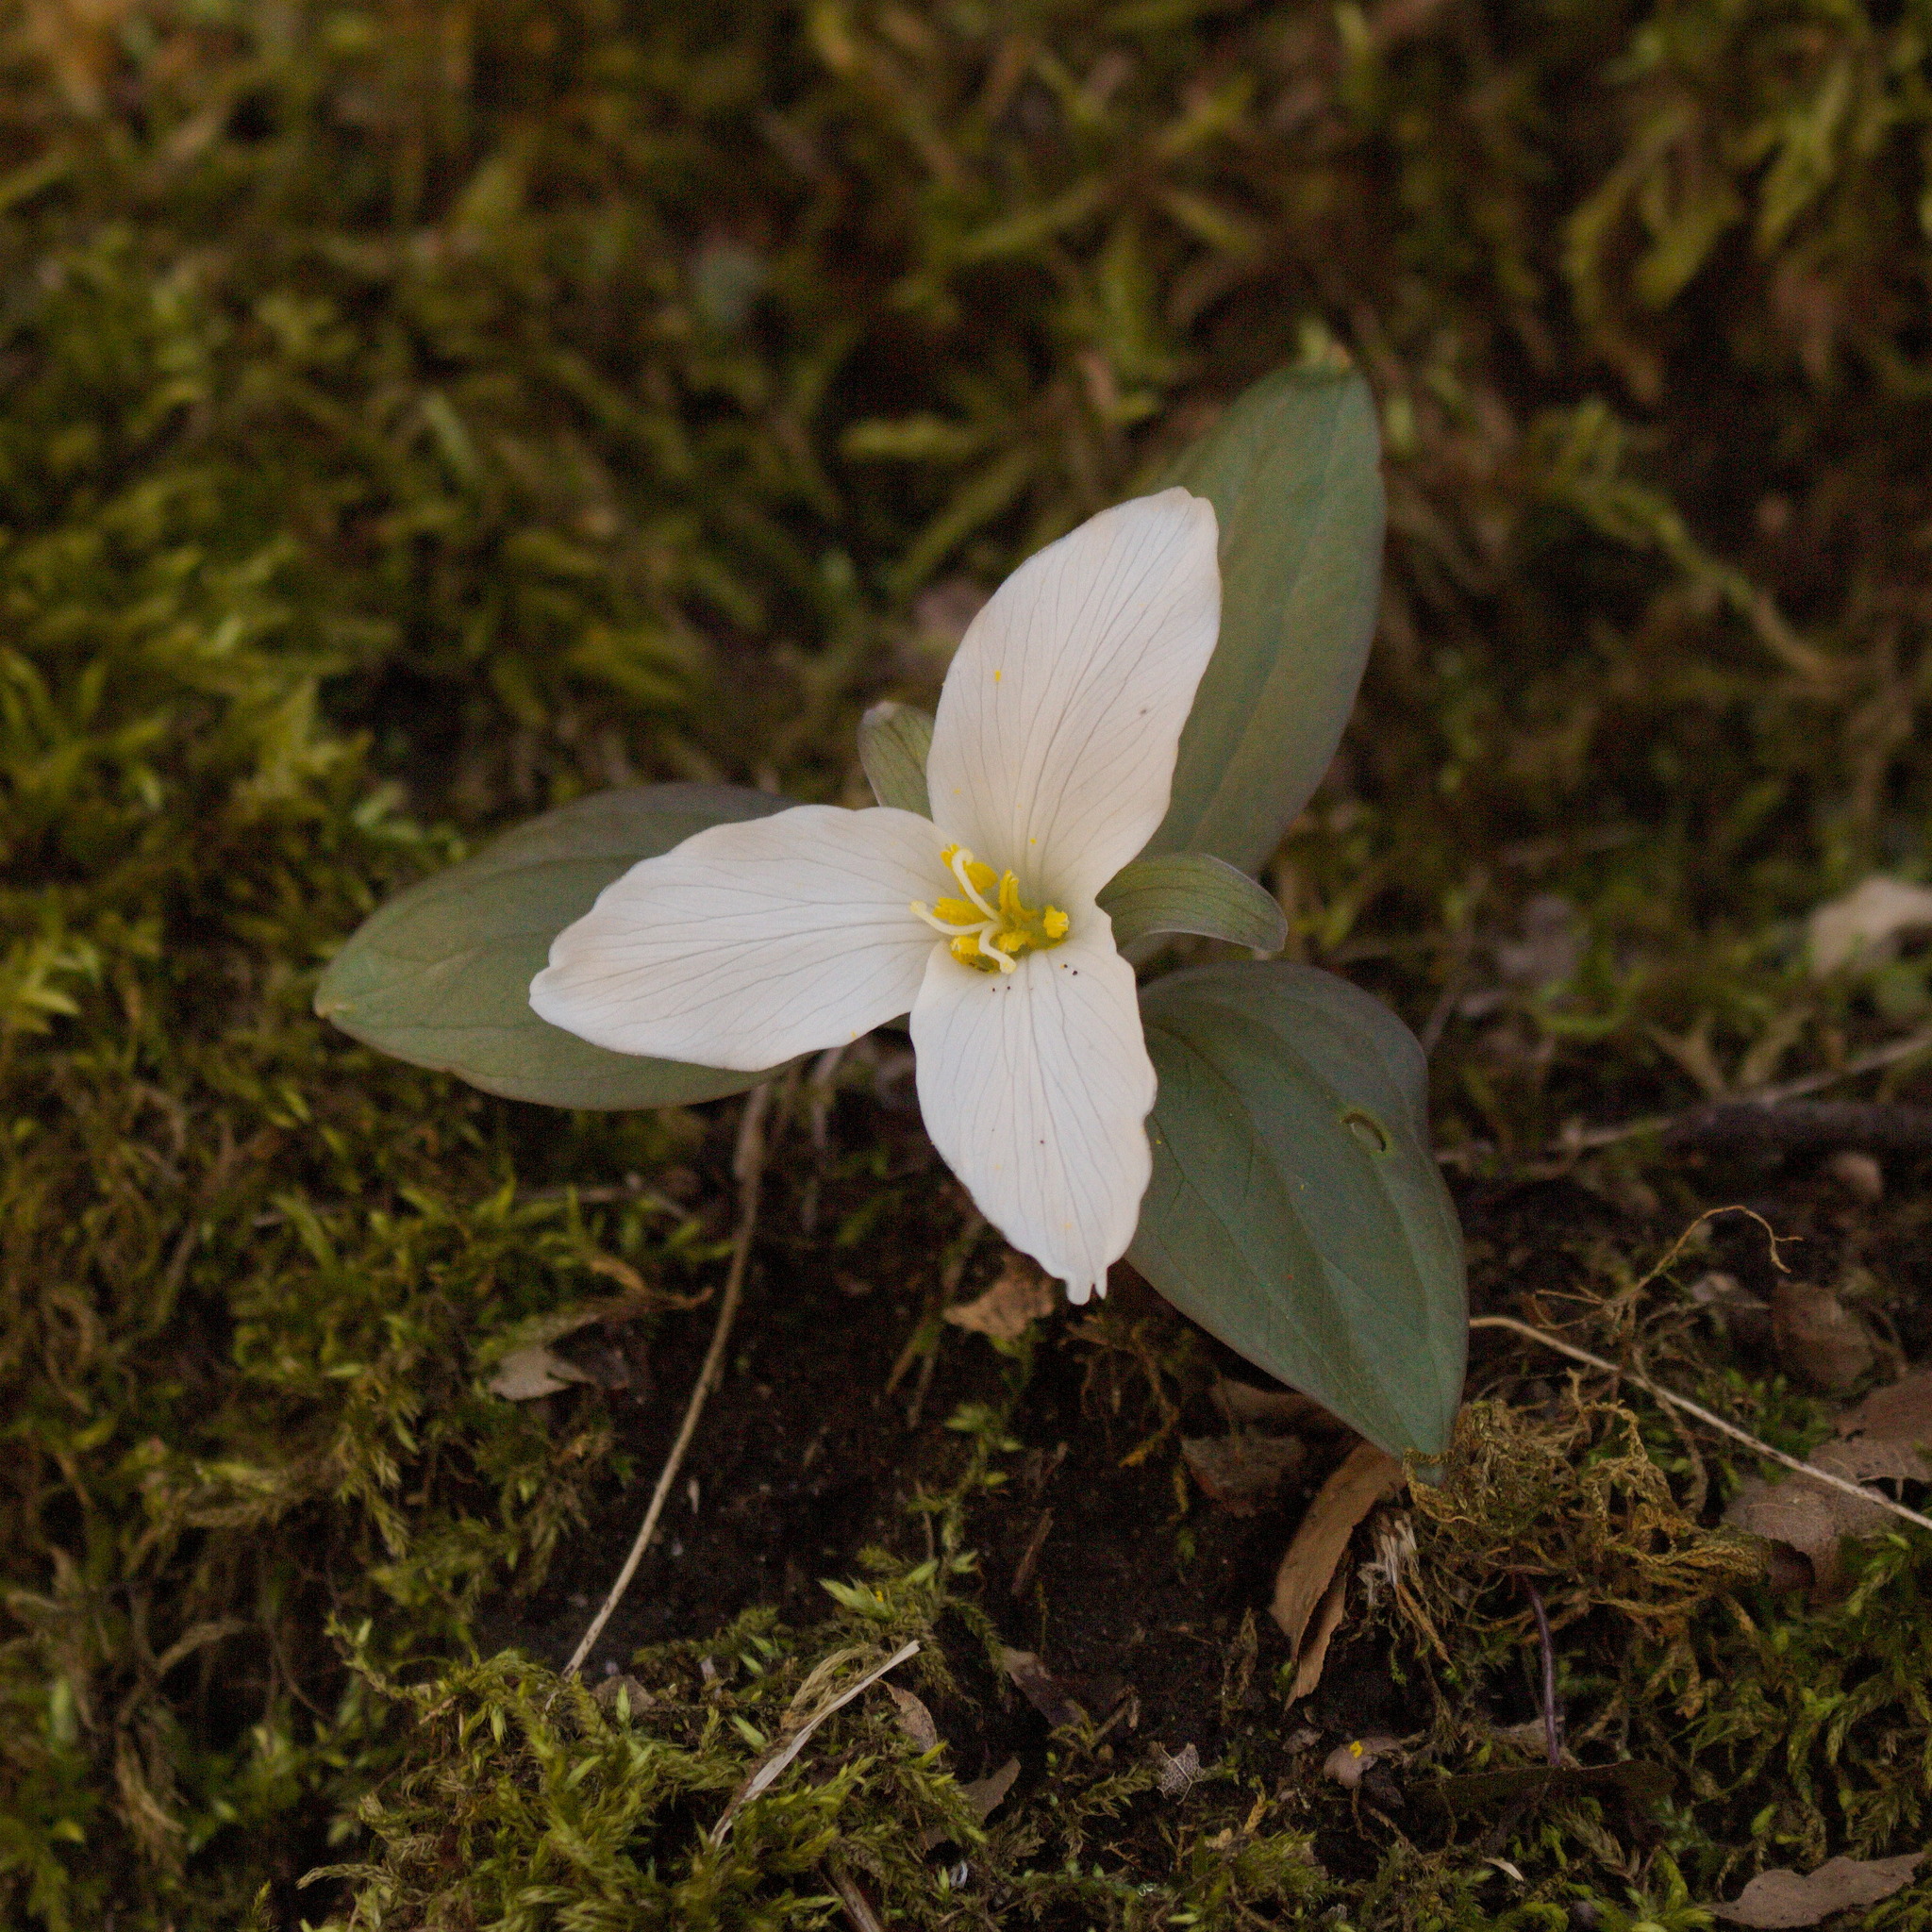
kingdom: Plantae
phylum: Tracheophyta
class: Liliopsida
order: Liliales
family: Melanthiaceae
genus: Trillium
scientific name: Trillium nivale
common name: Dwarf white trillium
